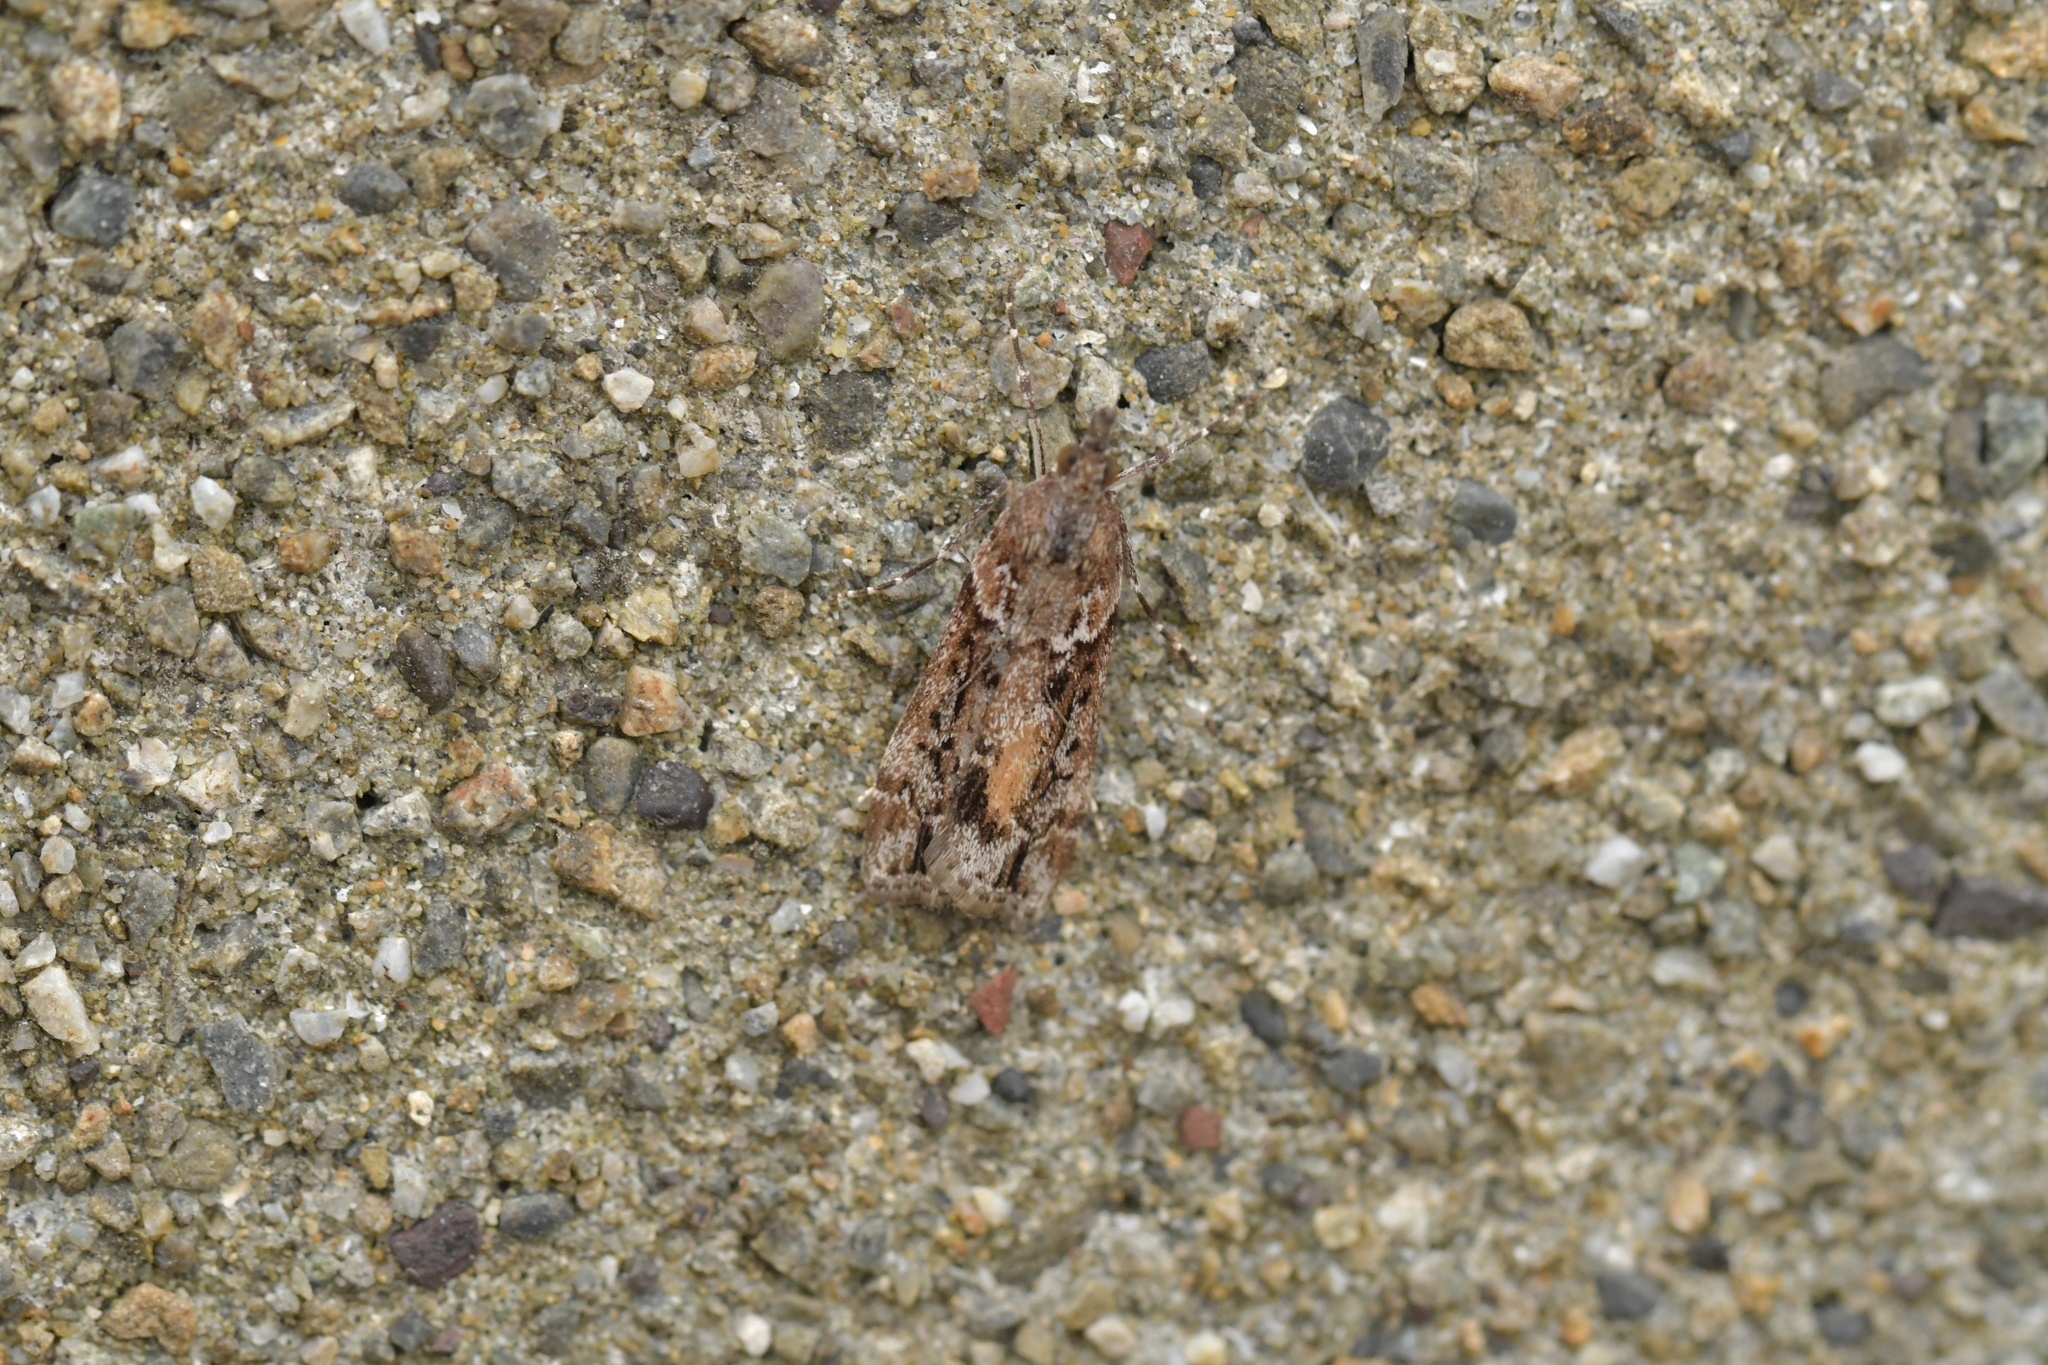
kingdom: Animalia
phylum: Arthropoda
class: Insecta
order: Lepidoptera
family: Crambidae
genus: Eudonia
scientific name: Eudonia submarginalis
